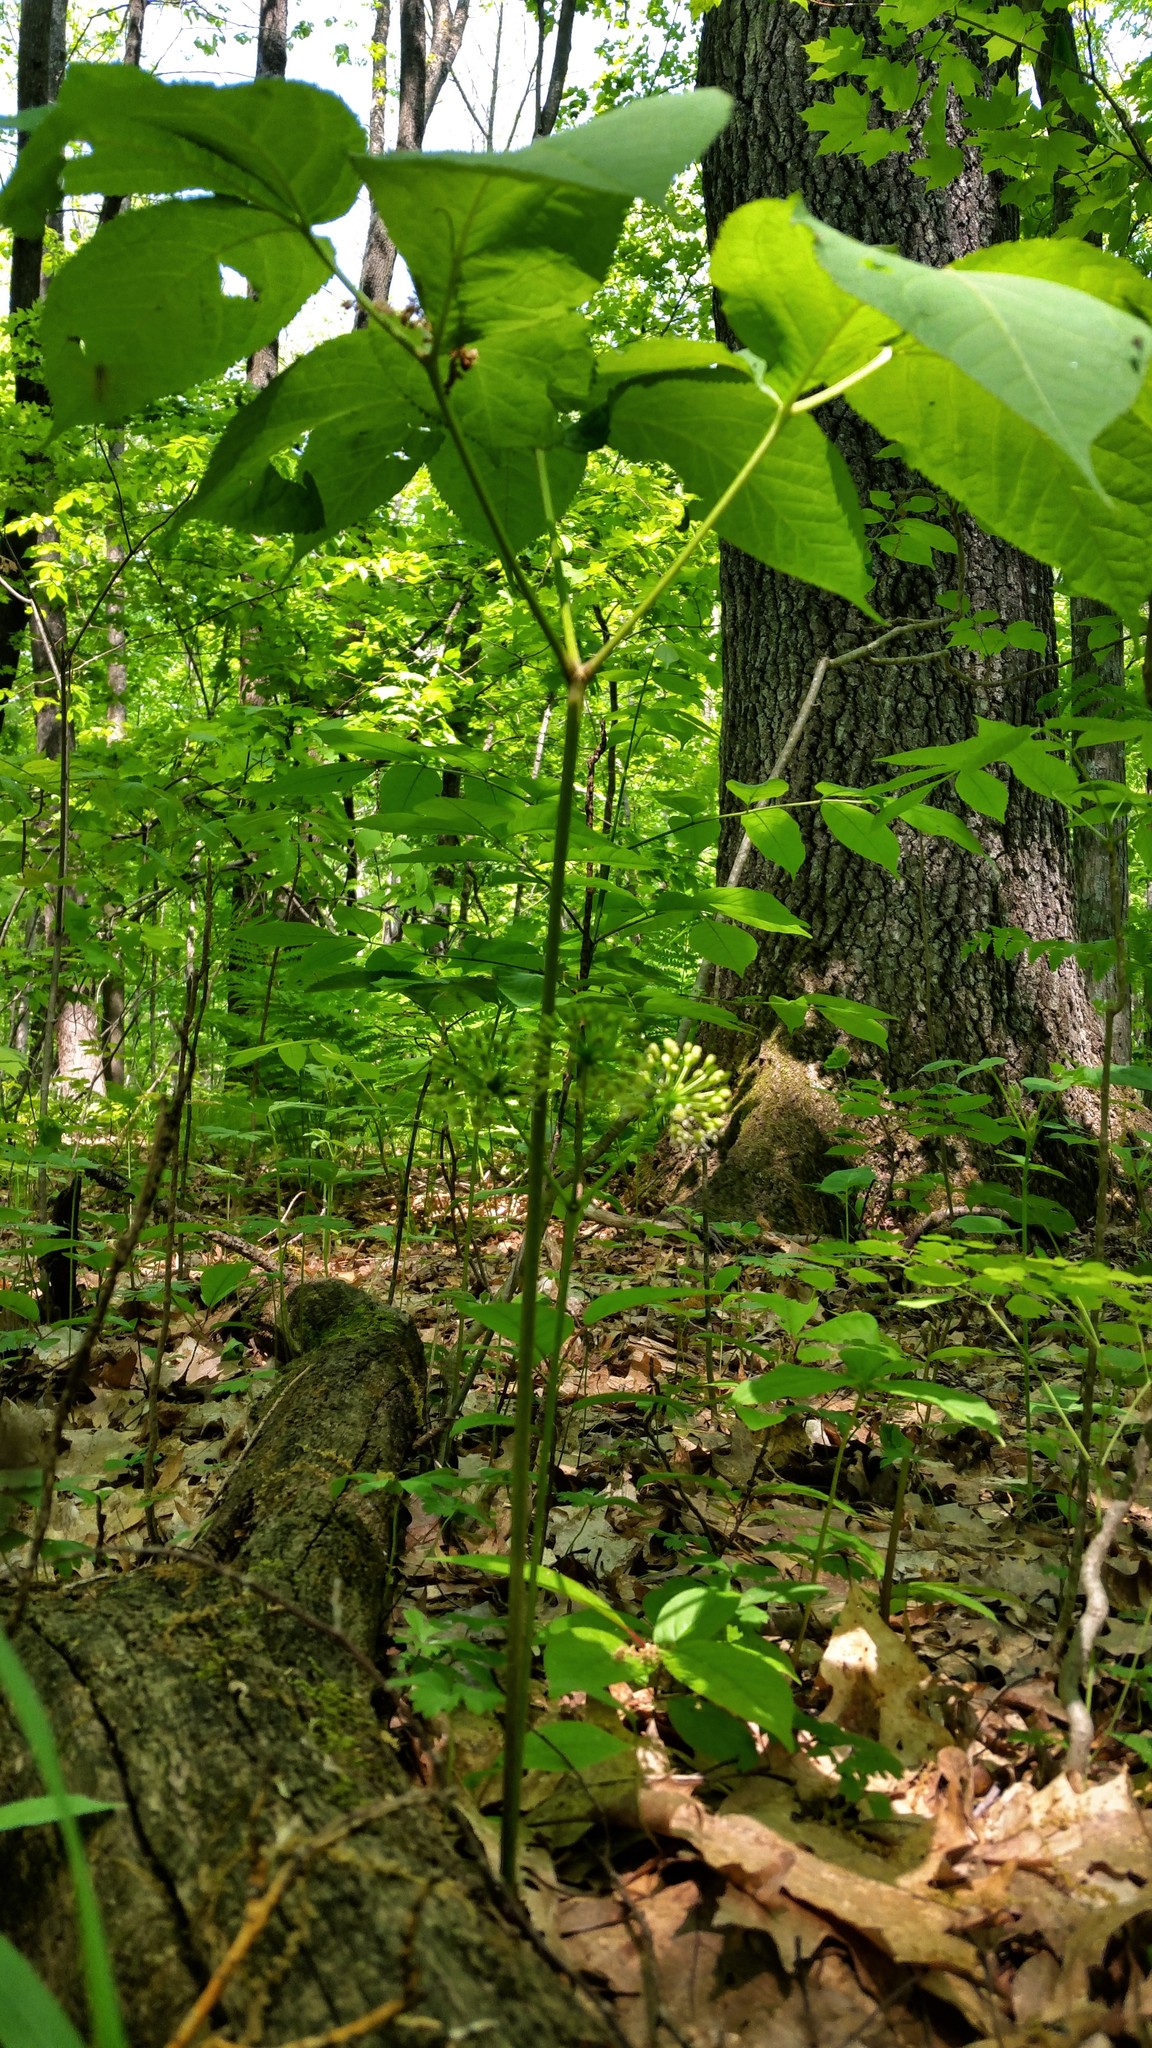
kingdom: Plantae
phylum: Tracheophyta
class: Magnoliopsida
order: Apiales
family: Araliaceae
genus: Aralia
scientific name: Aralia nudicaulis
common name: Wild sarsaparilla
